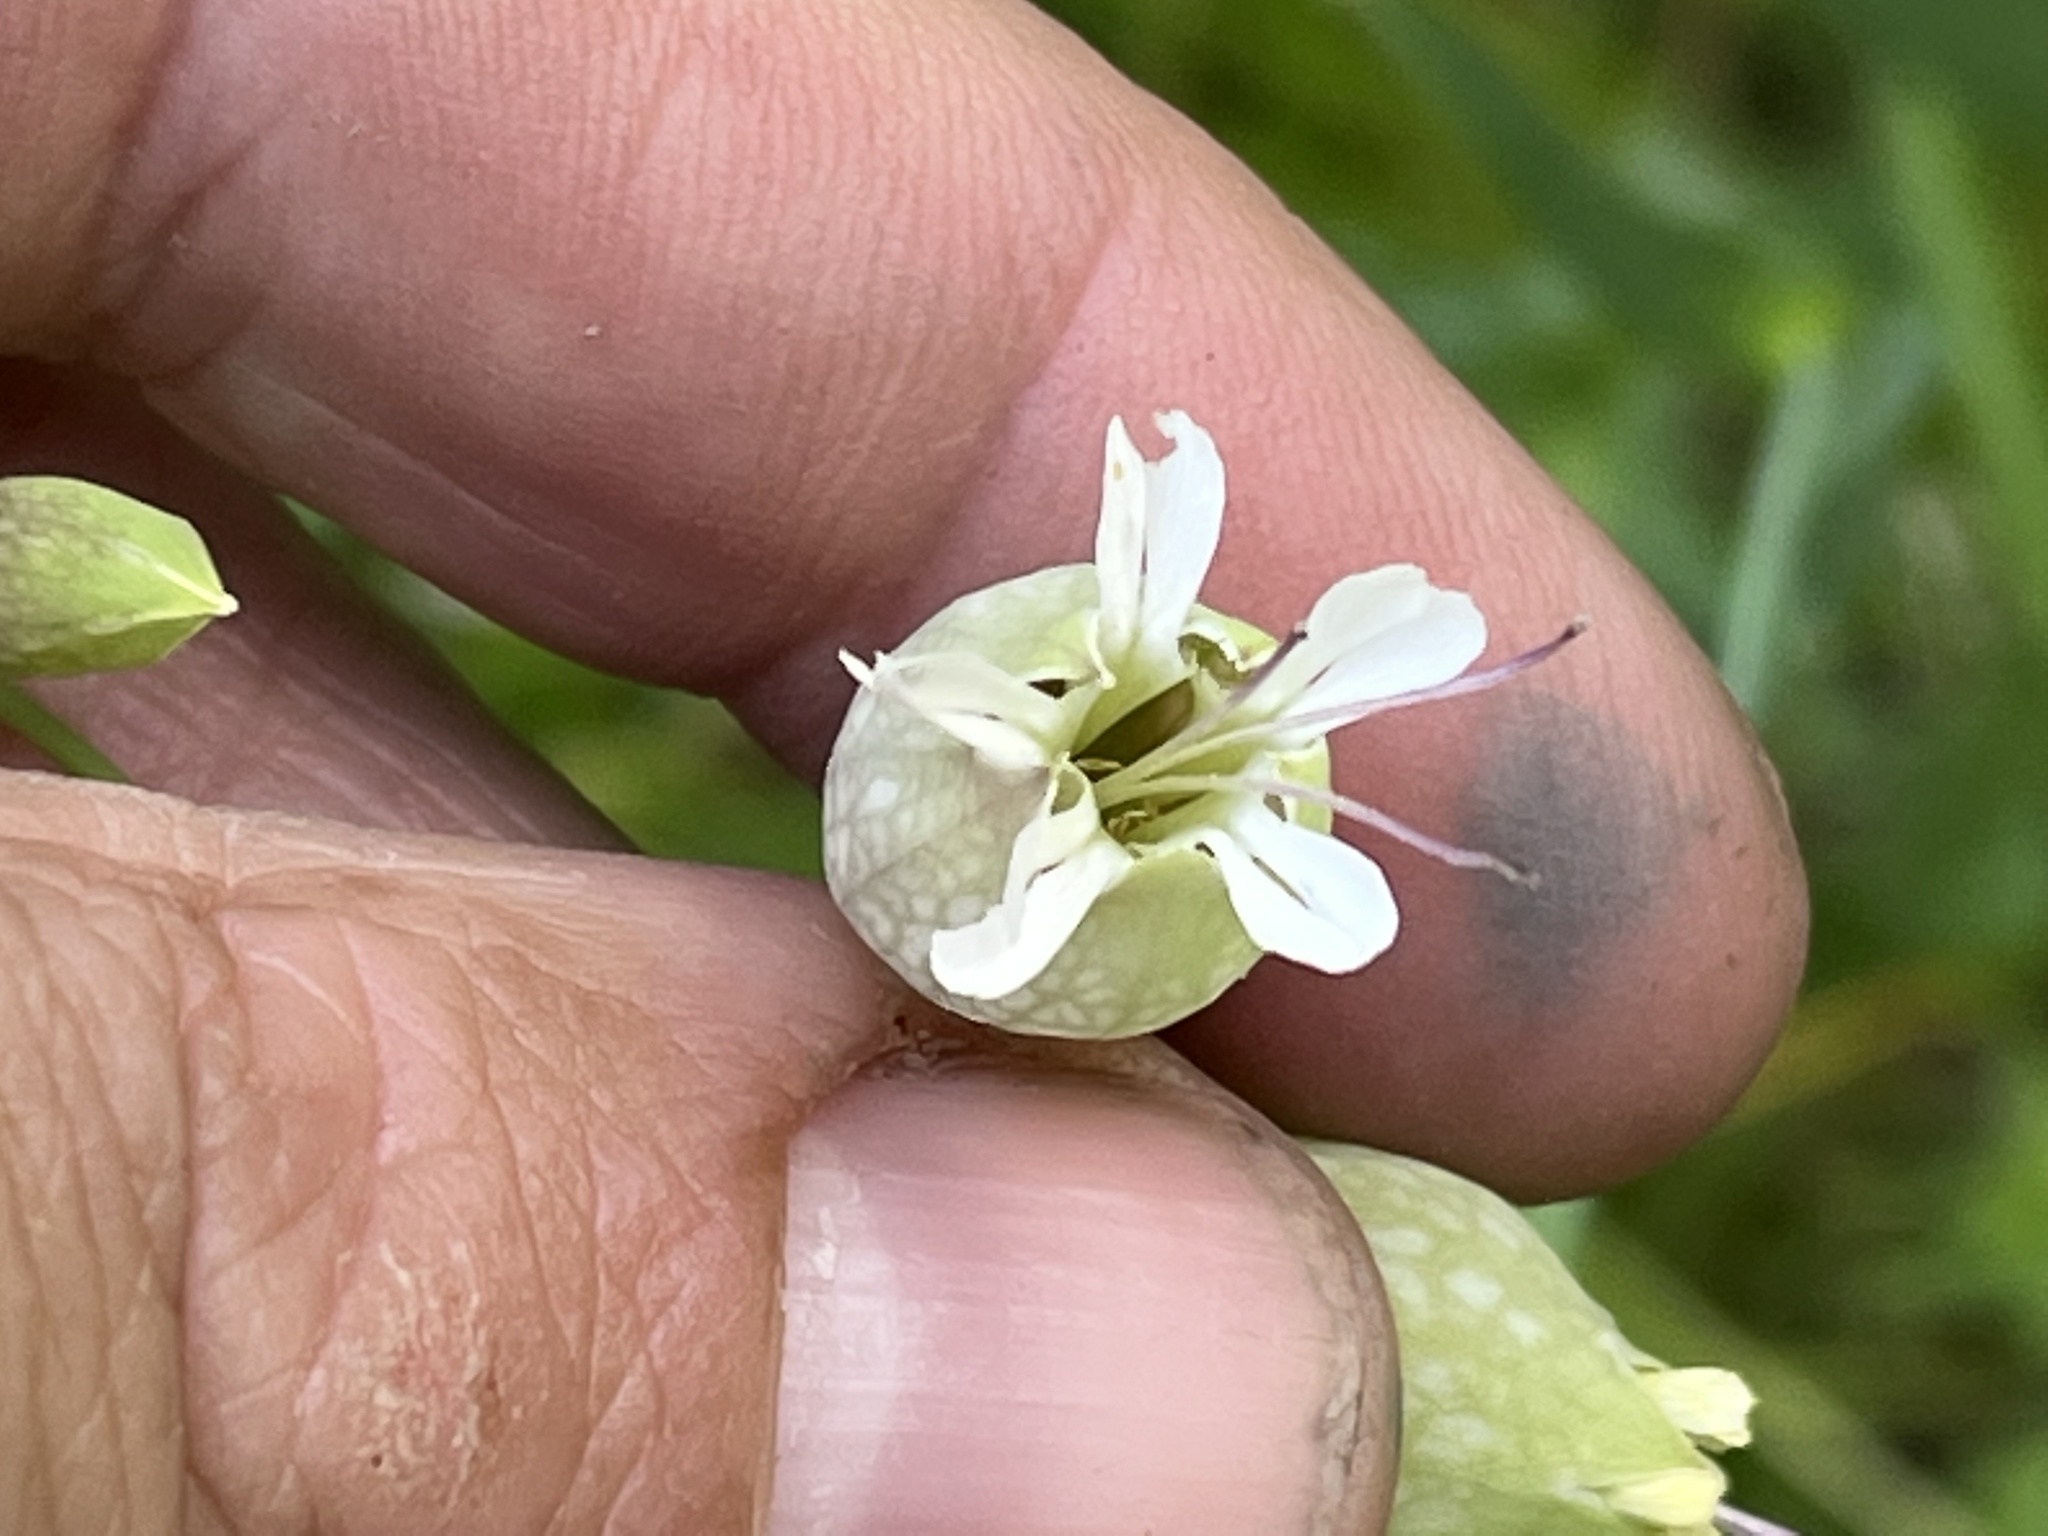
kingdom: Plantae
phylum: Tracheophyta
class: Magnoliopsida
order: Caryophyllales
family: Caryophyllaceae
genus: Silene
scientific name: Silene vulgaris
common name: Bladder campion
